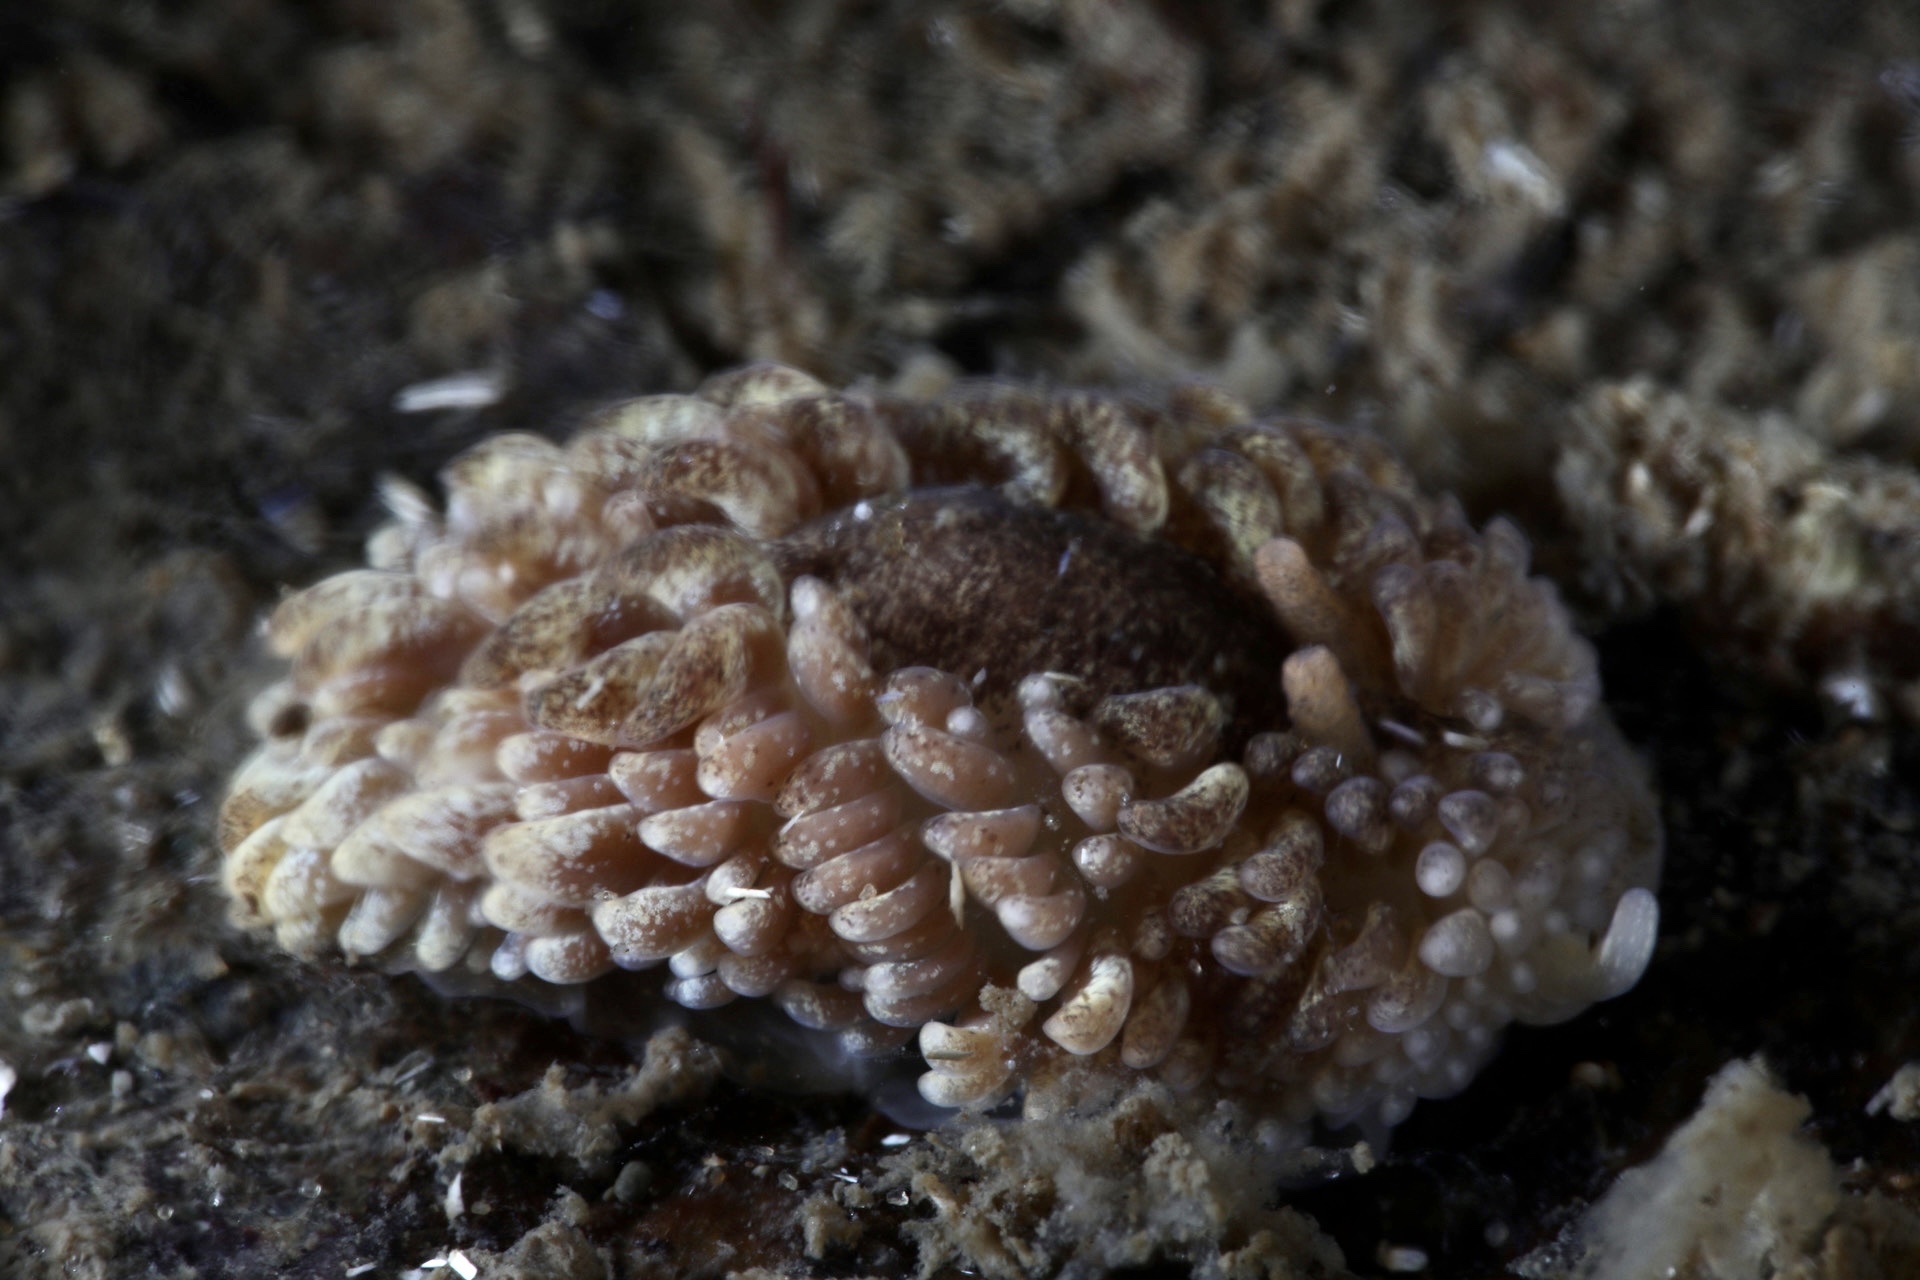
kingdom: Animalia
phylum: Mollusca
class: Gastropoda
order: Nudibranchia
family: Aeolidiidae
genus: Aeolidia
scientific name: Aeolidia papillosa
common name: Common grey sea slug
